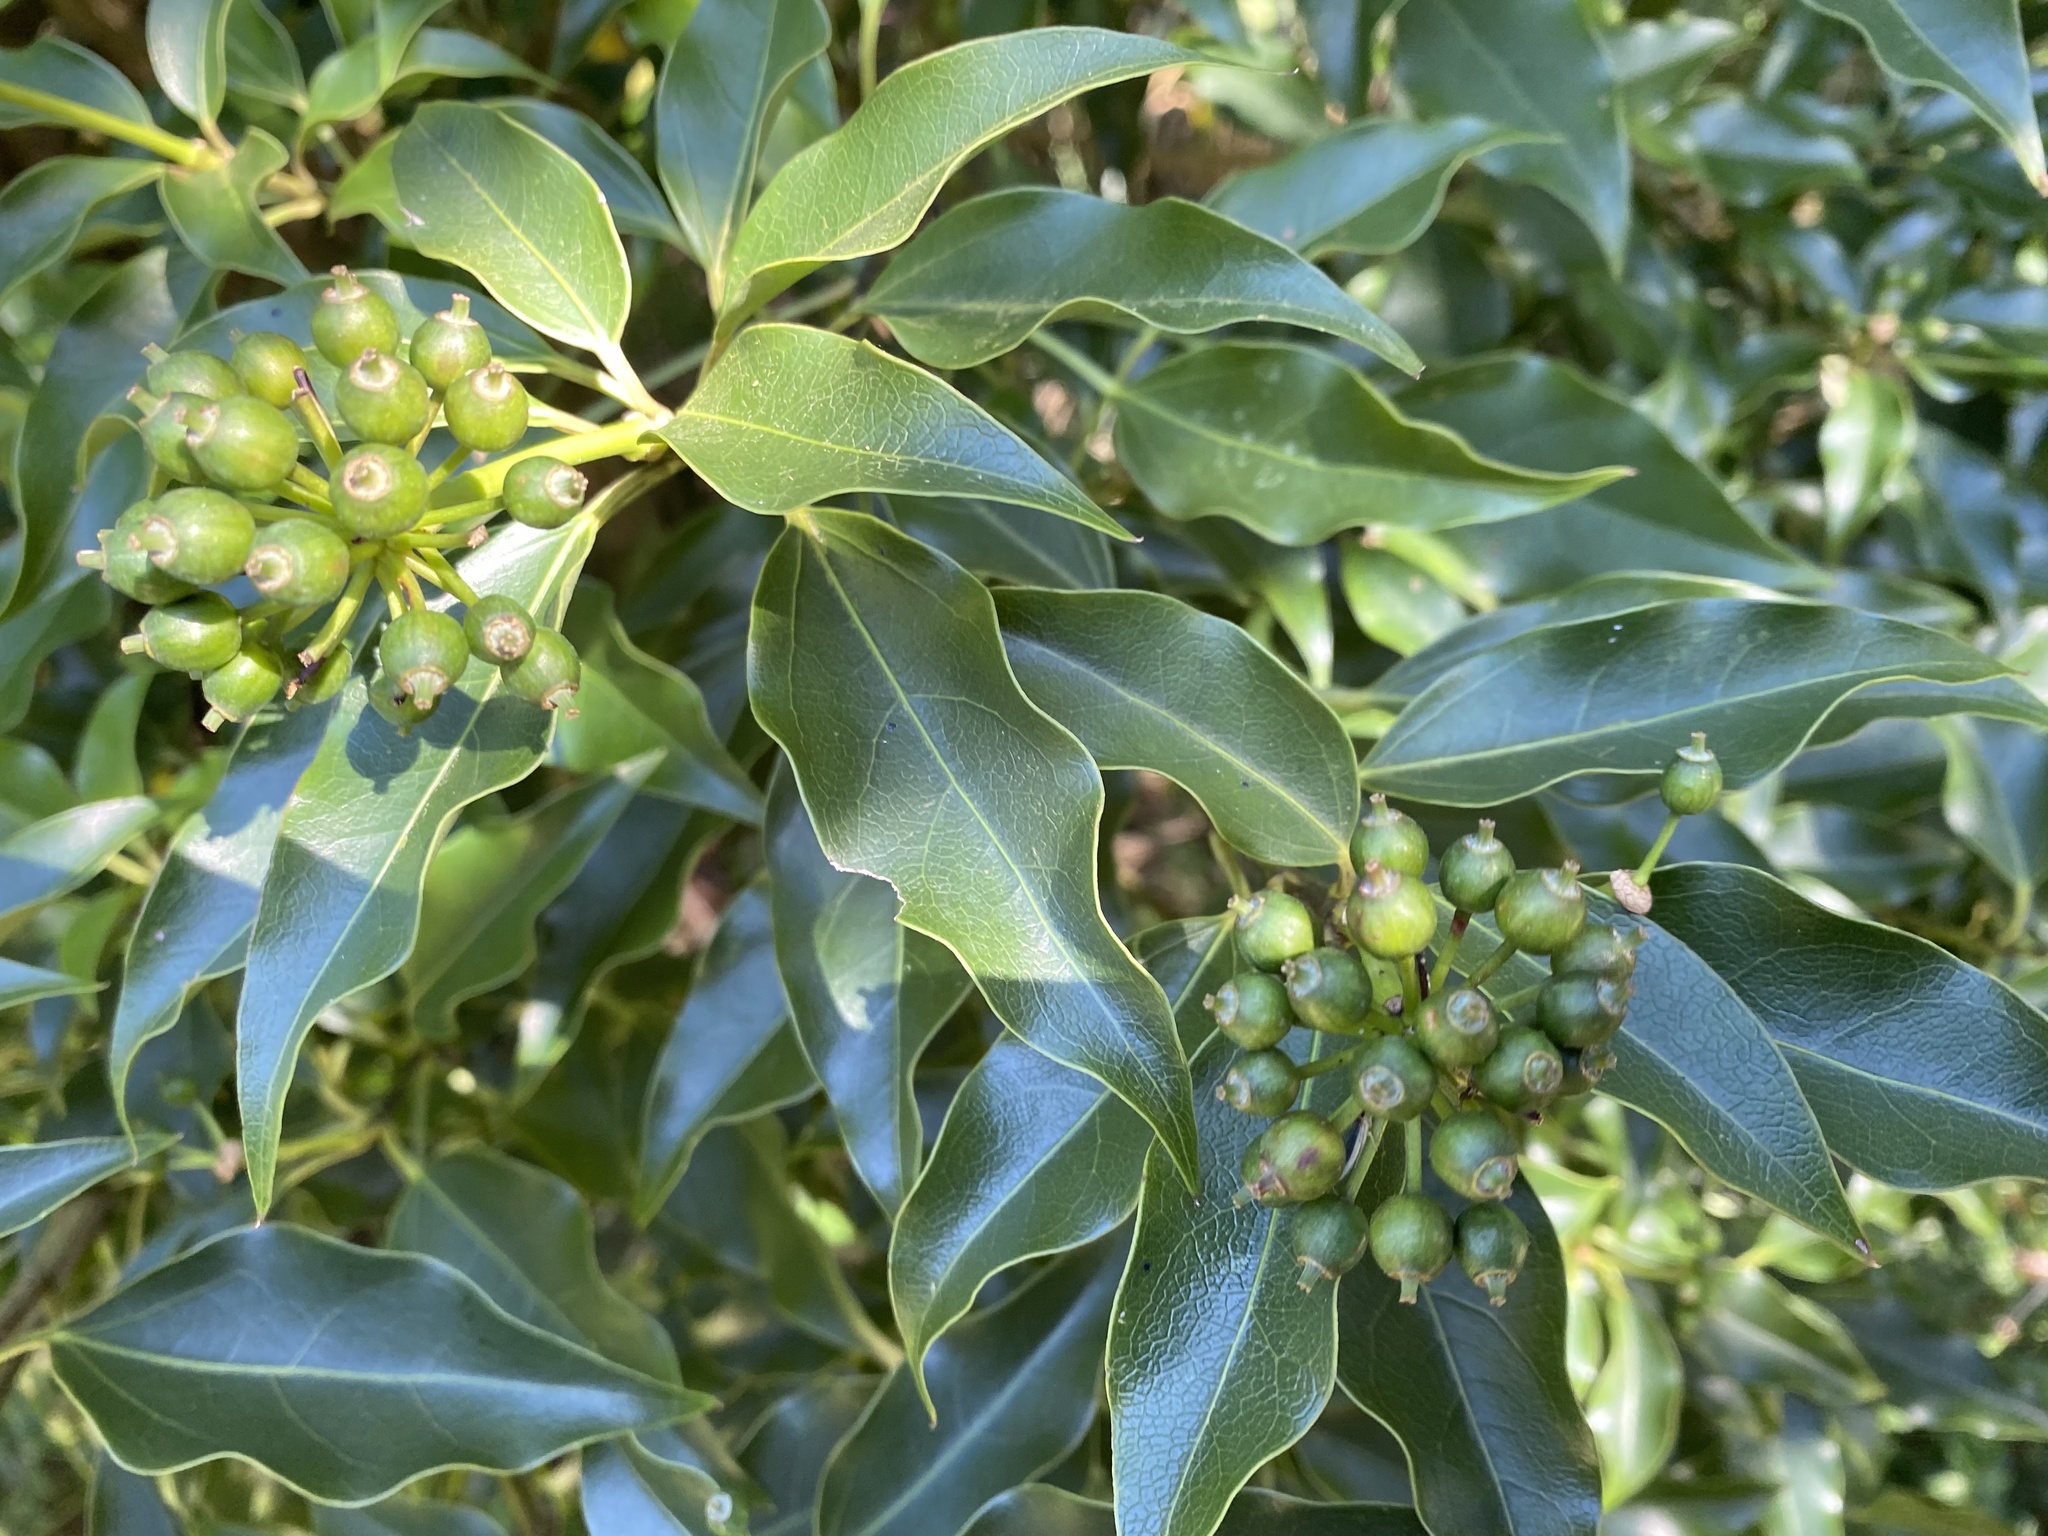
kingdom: Plantae
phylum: Tracheophyta
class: Magnoliopsida
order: Apiales
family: Araliaceae
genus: Dendropanax
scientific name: Dendropanax dentiger
